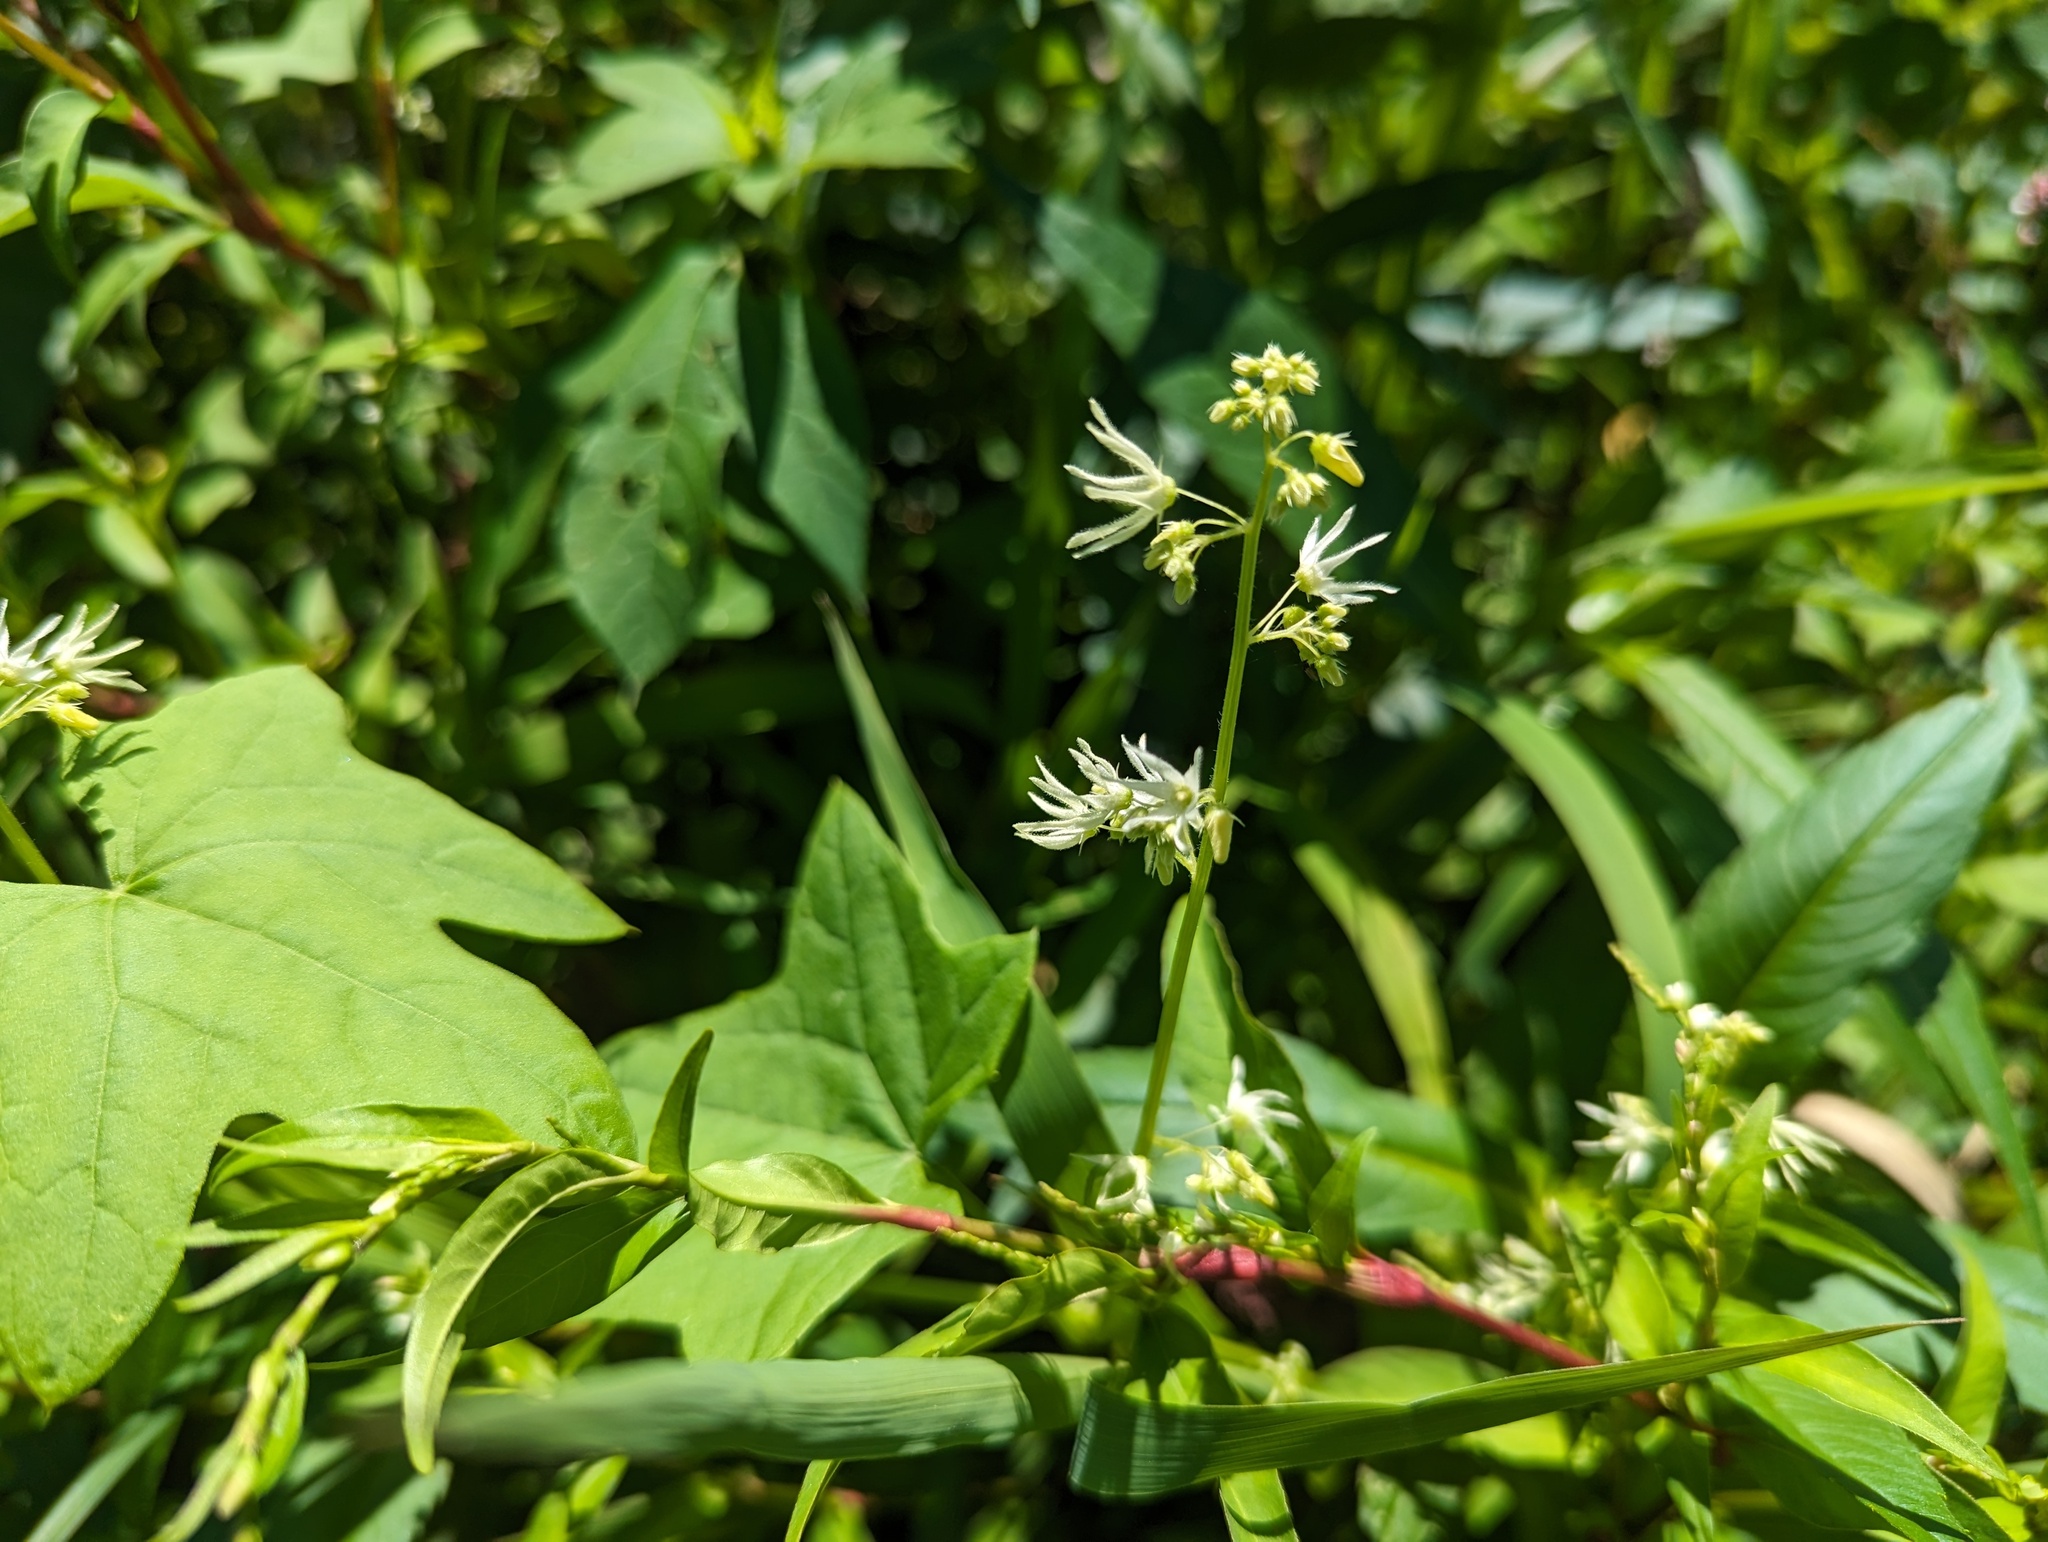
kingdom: Plantae
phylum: Tracheophyta
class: Magnoliopsida
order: Cucurbitales
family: Cucurbitaceae
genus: Echinocystis
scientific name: Echinocystis lobata
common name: Wild cucumber
